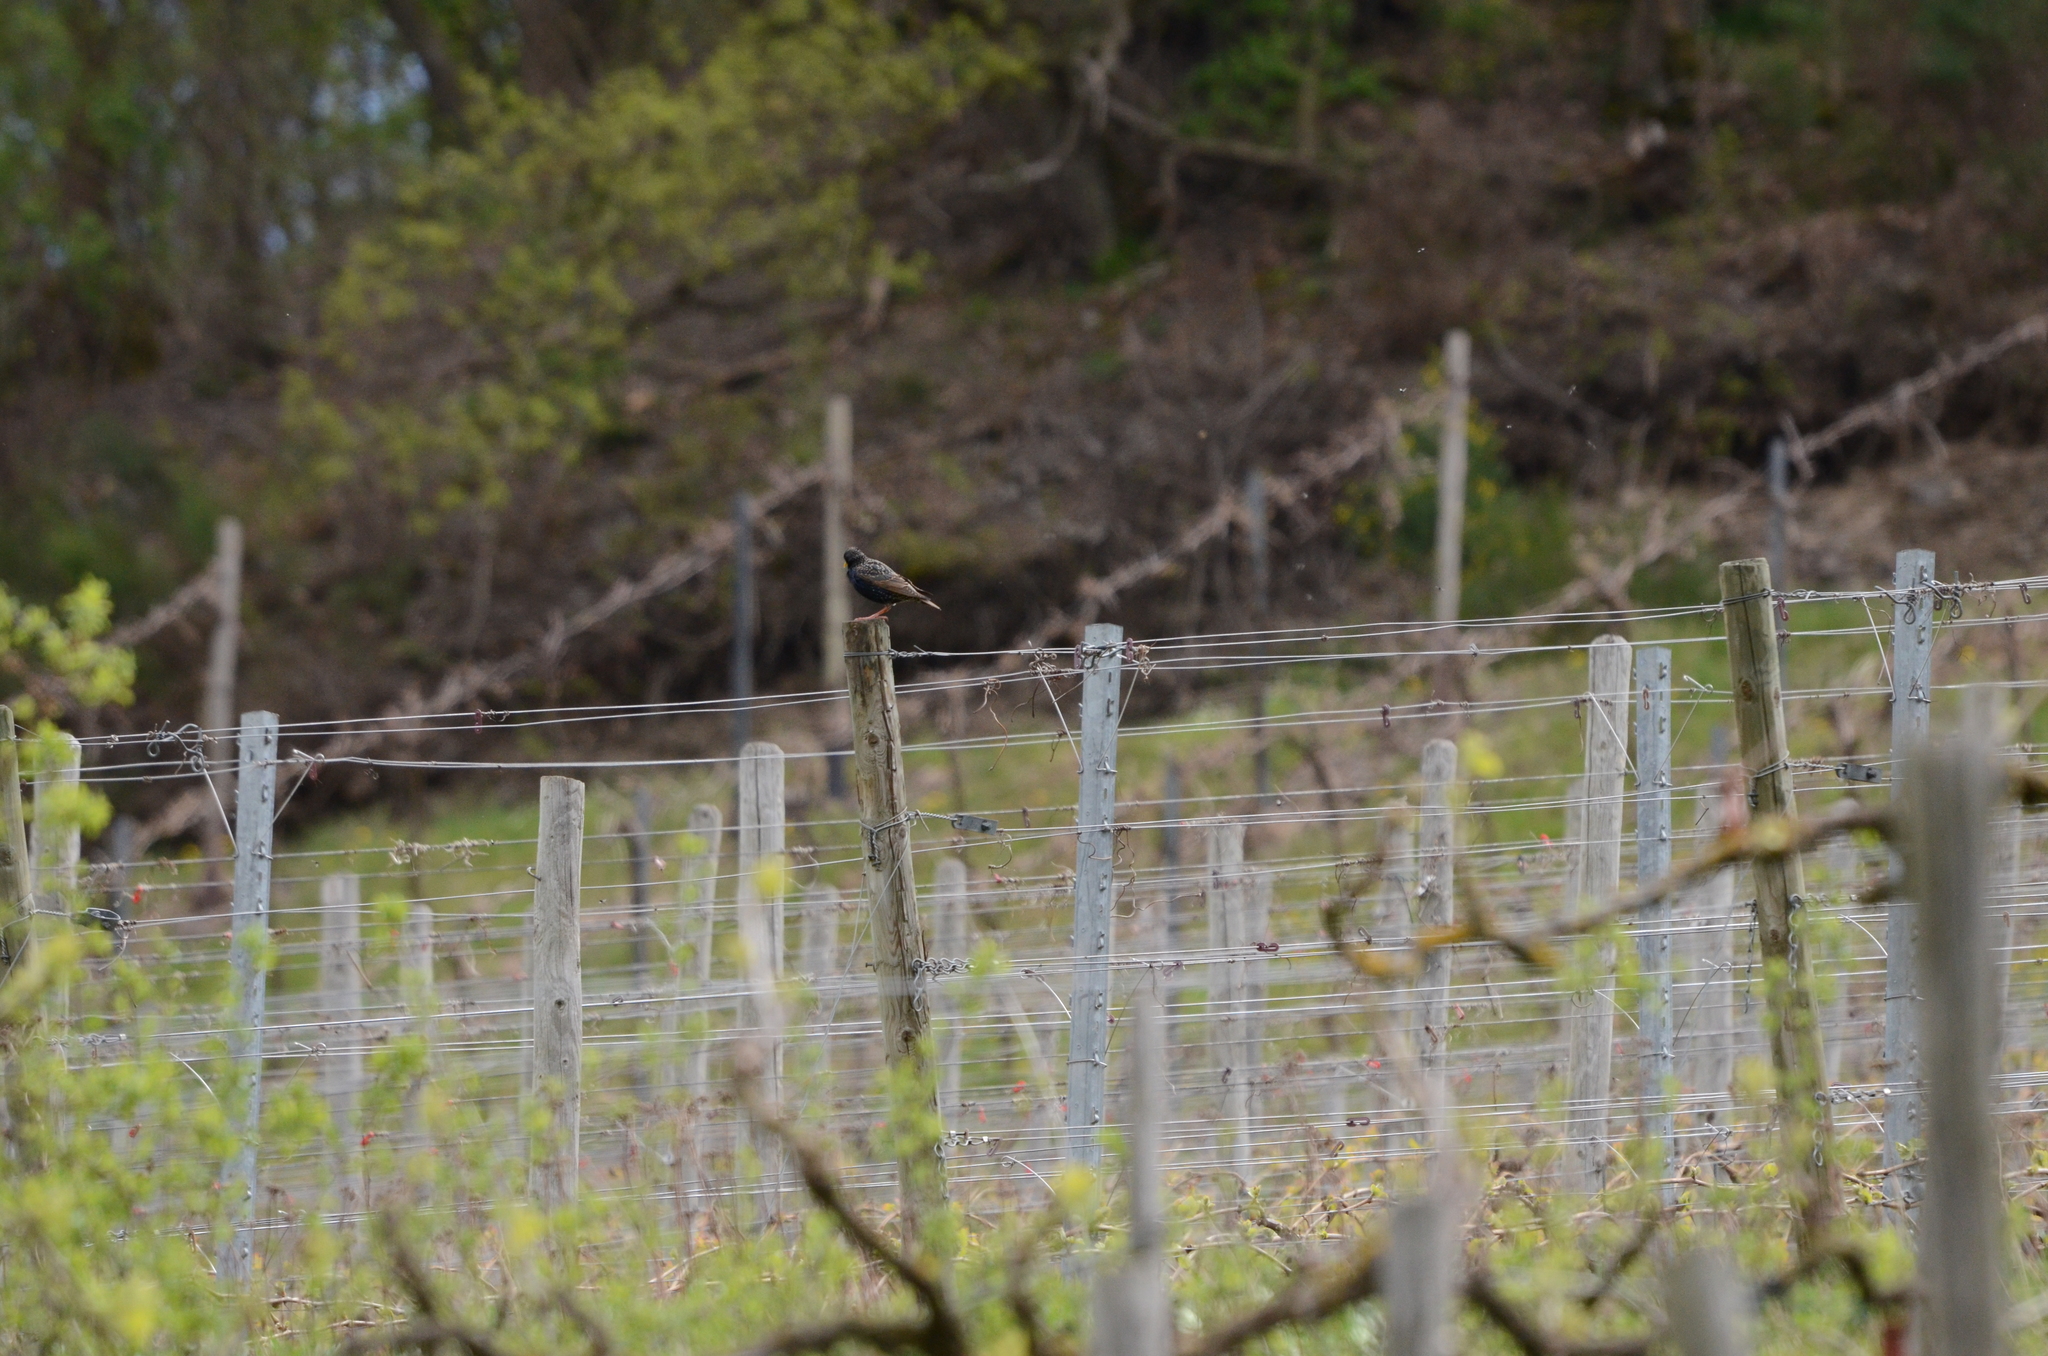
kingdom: Animalia
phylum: Chordata
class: Aves
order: Passeriformes
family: Sturnidae
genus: Sturnus
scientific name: Sturnus vulgaris
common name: Common starling
